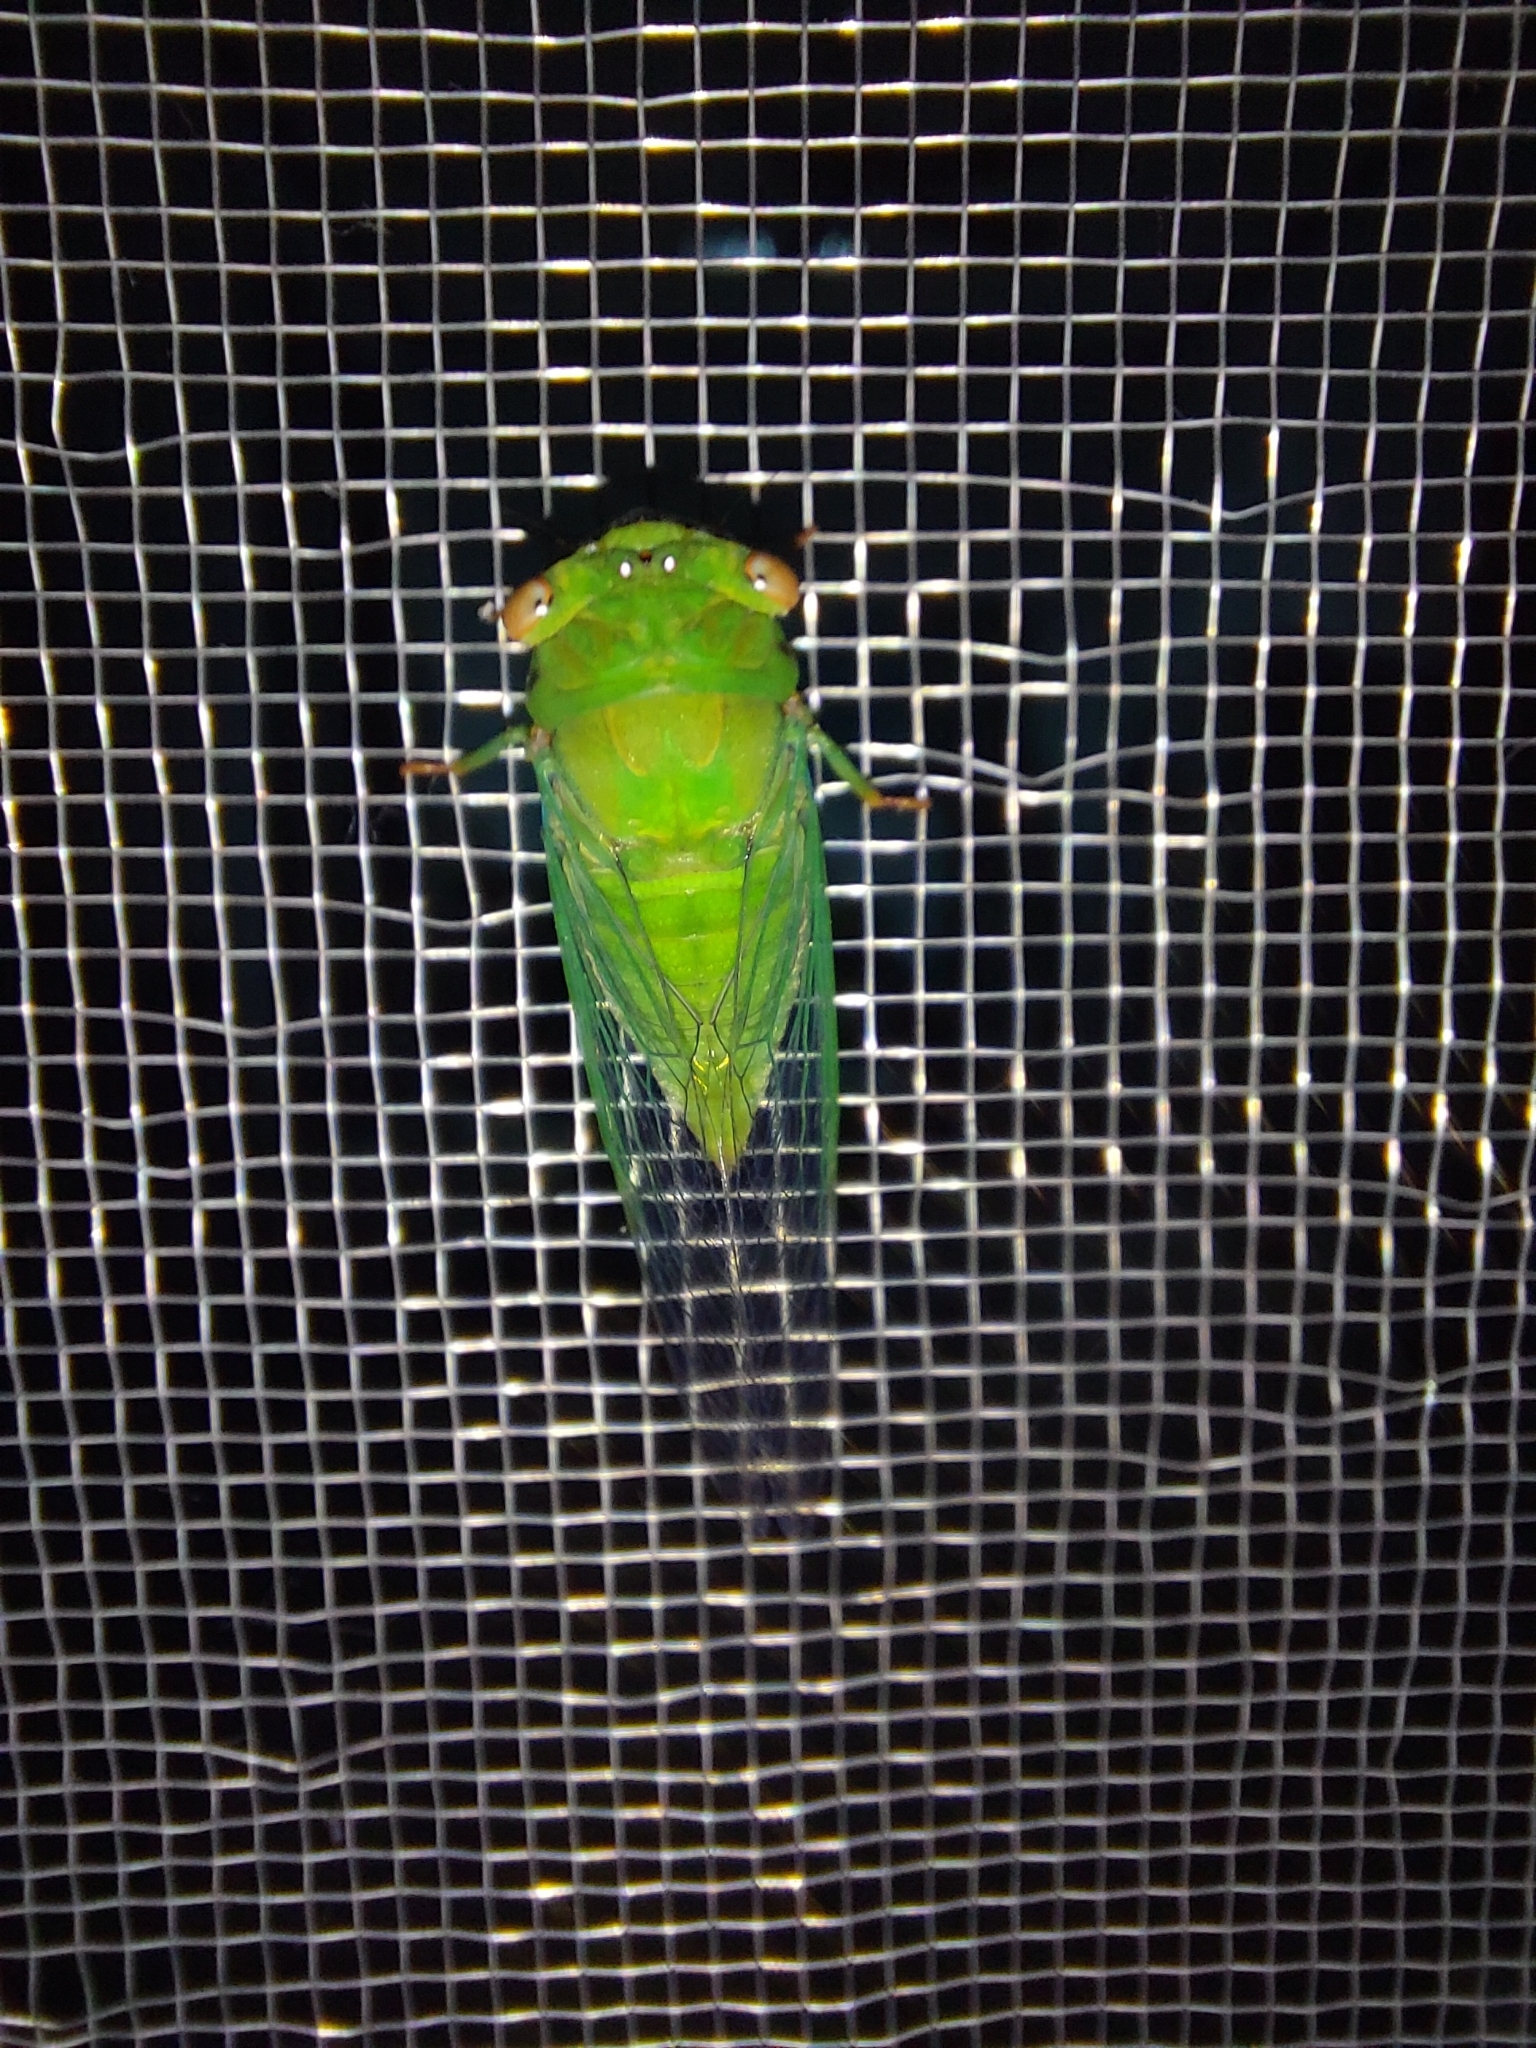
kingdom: Animalia
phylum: Arthropoda
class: Insecta
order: Hemiptera
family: Cicadidae
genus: Chremistica
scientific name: Chremistica ochracea
